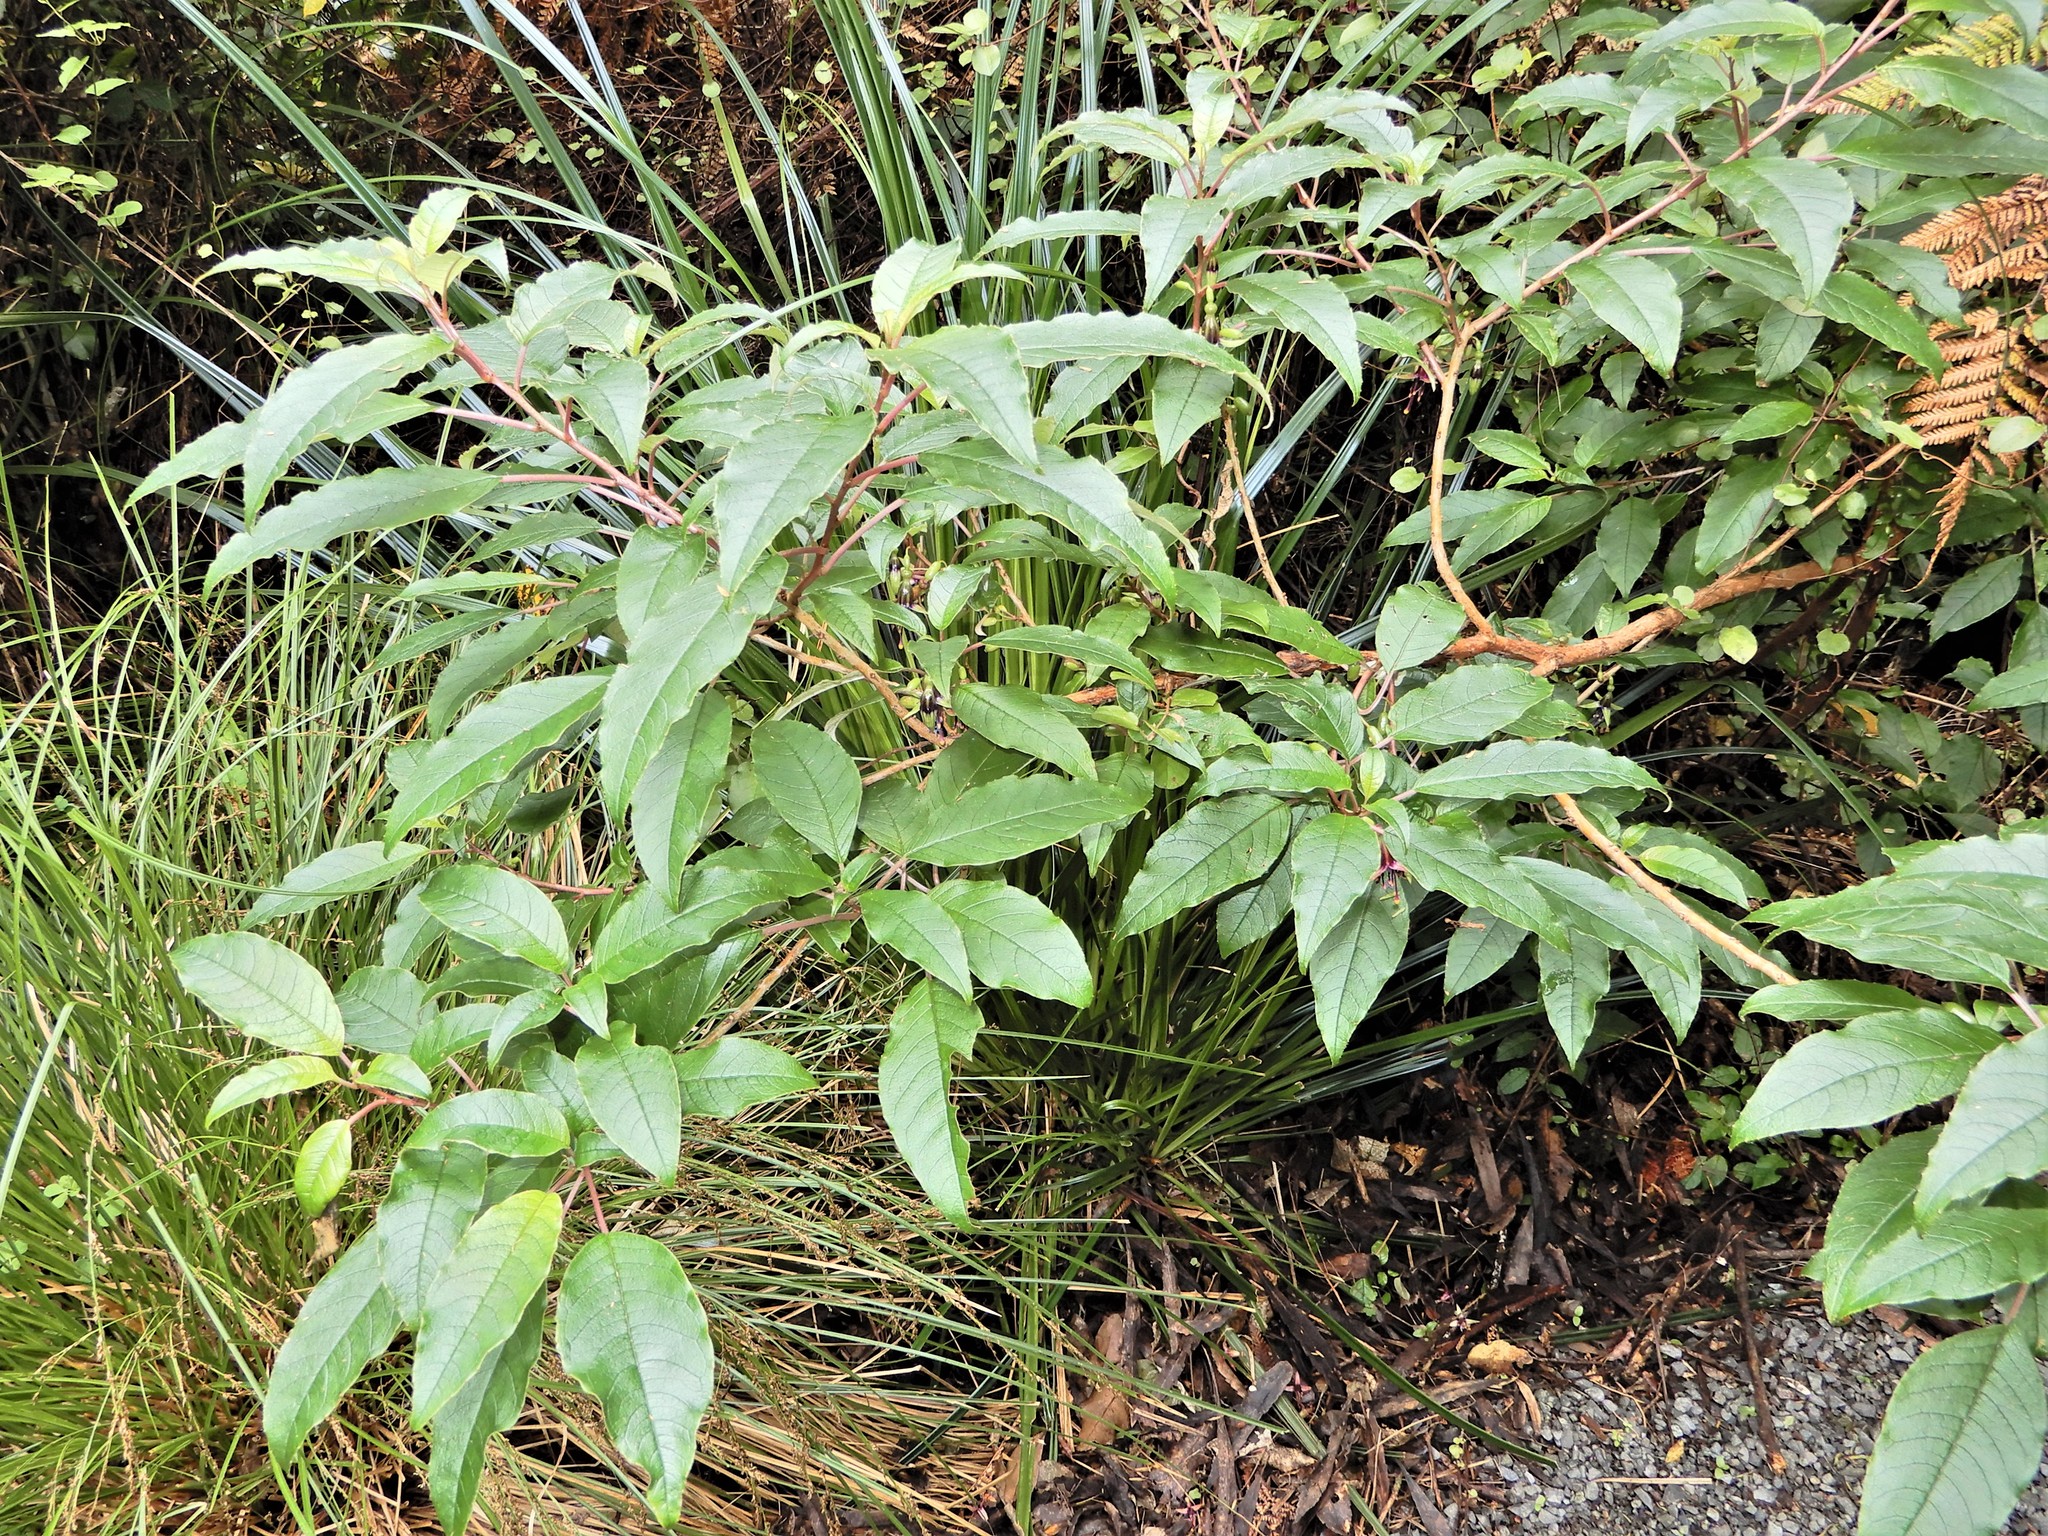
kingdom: Plantae
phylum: Tracheophyta
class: Magnoliopsida
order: Myrtales
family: Onagraceae
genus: Fuchsia
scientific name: Fuchsia excorticata
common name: Tree fuchsia
